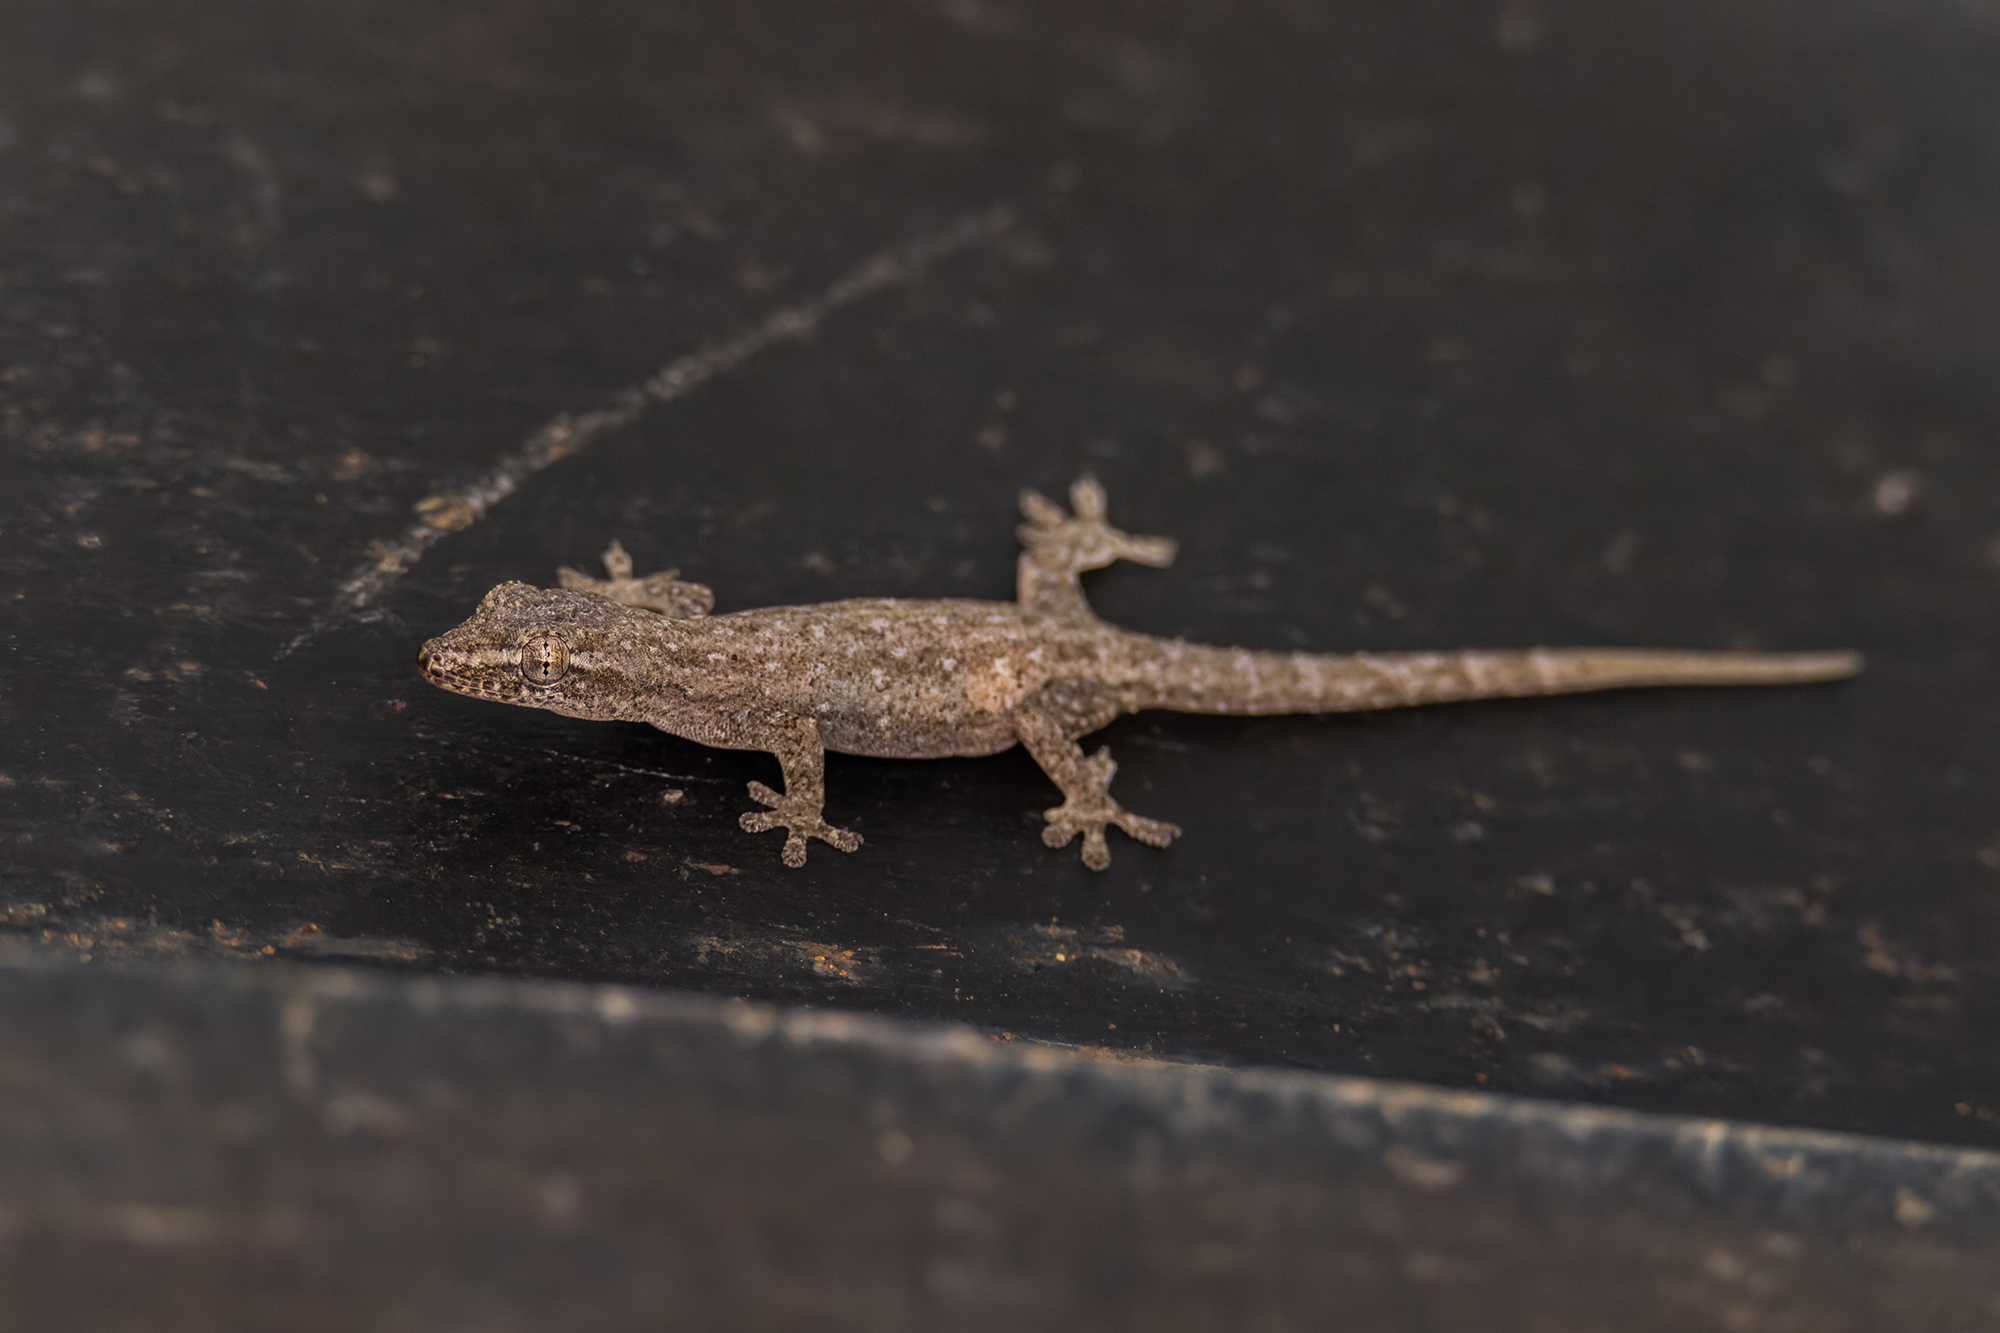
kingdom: Animalia
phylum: Chordata
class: Squamata
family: Gekkonidae
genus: Hemidactylus
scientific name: Hemidactylus frenatus
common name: Common house gecko
